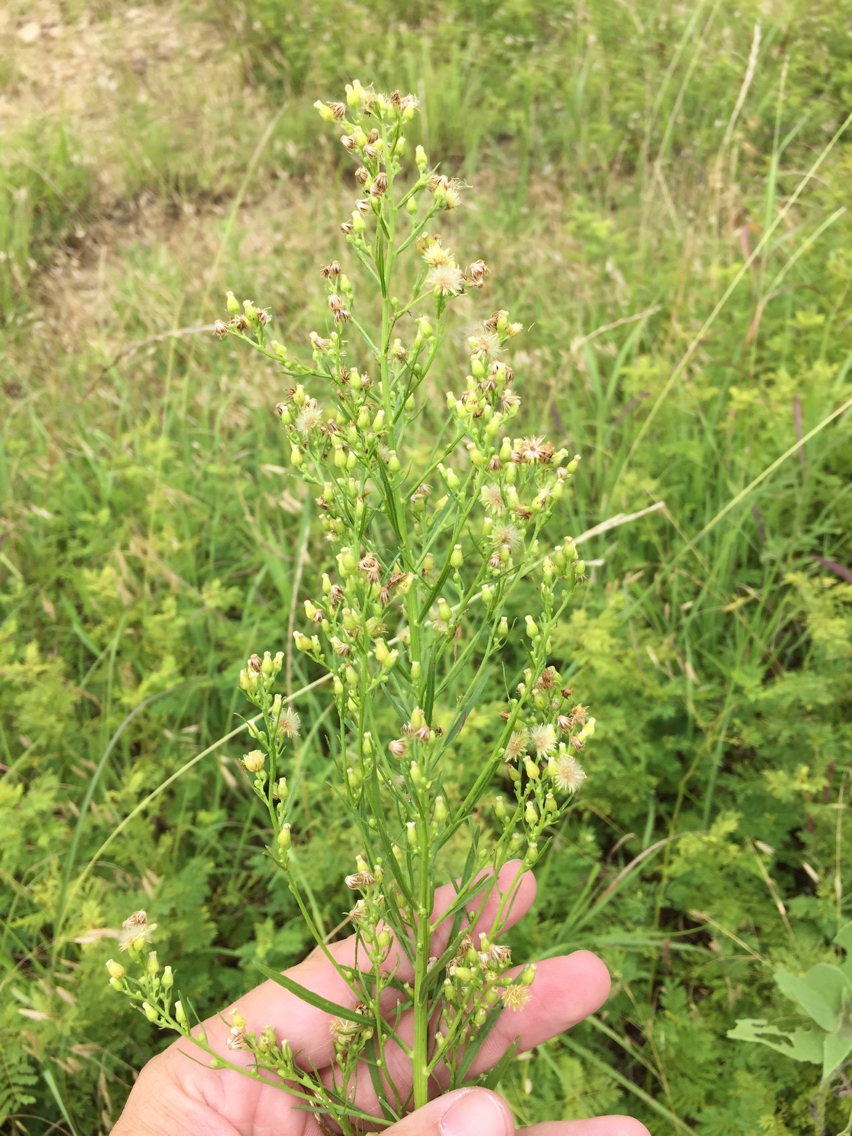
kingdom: Plantae
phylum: Tracheophyta
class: Magnoliopsida
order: Asterales
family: Asteraceae
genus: Erigeron
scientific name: Erigeron canadensis
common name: Canadian fleabane
